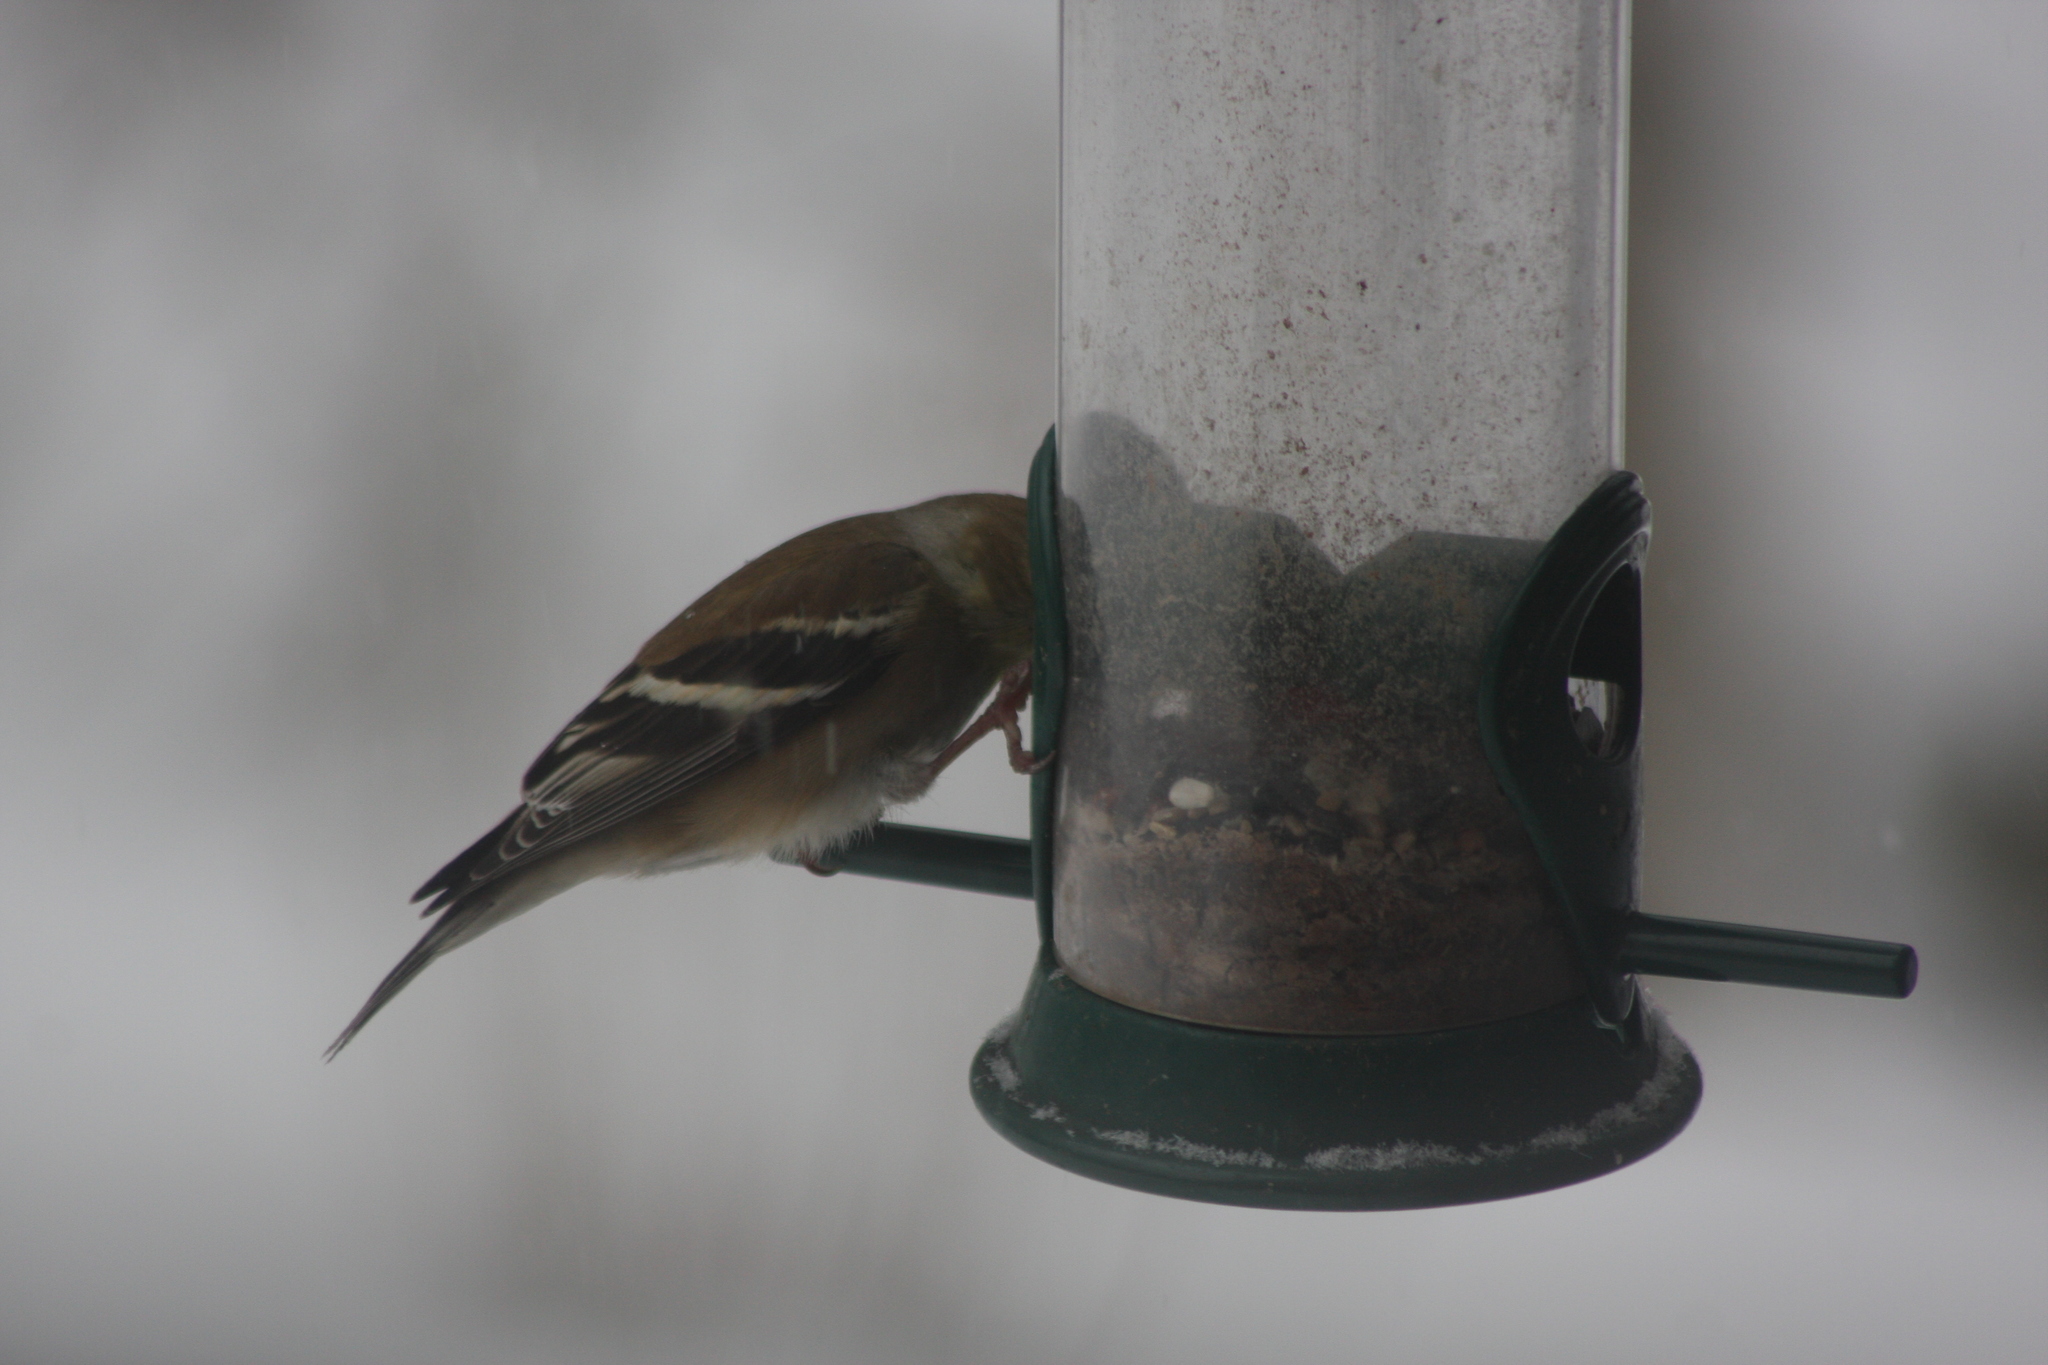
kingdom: Animalia
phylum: Chordata
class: Aves
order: Passeriformes
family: Fringillidae
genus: Spinus
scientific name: Spinus tristis
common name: American goldfinch
